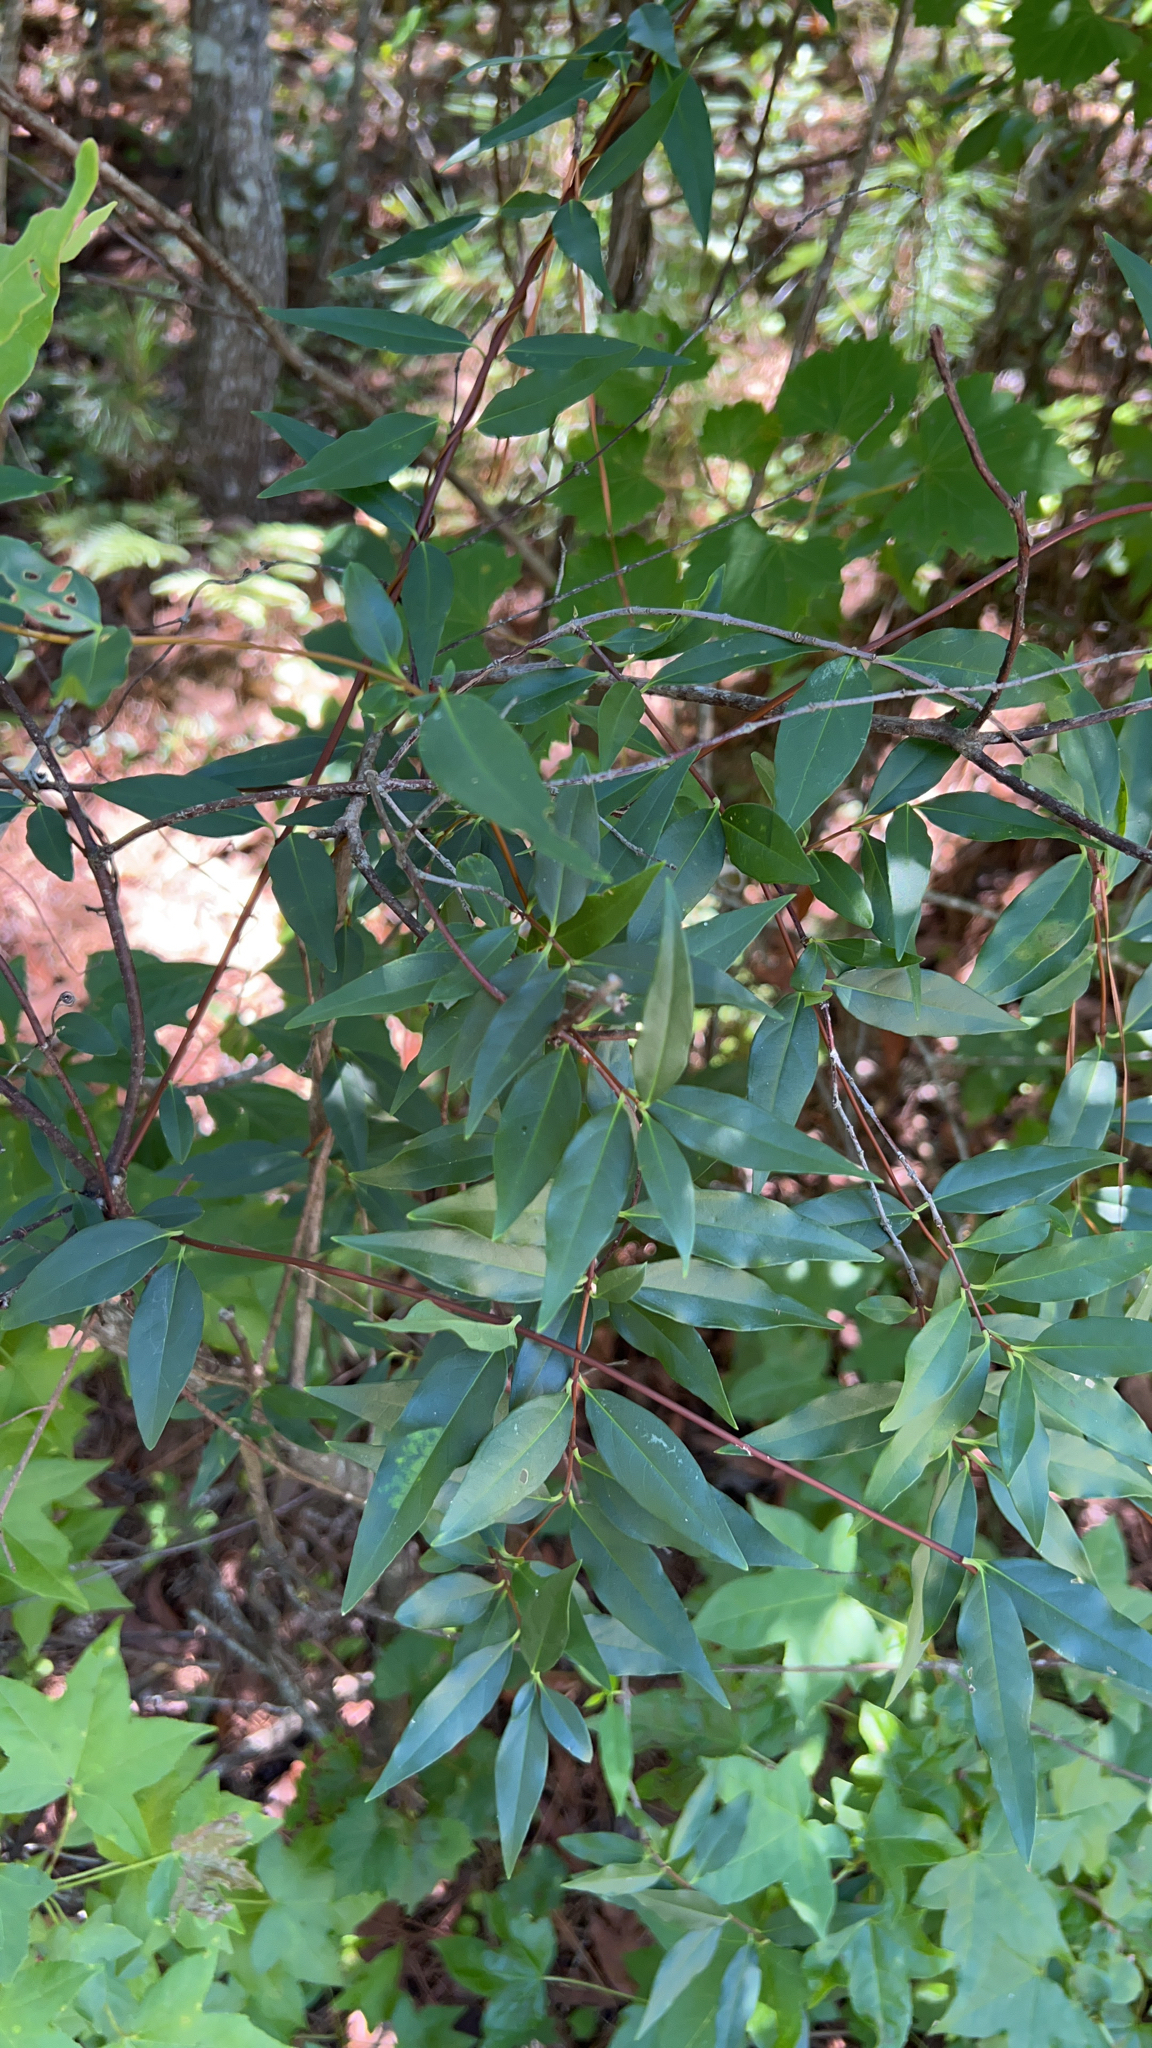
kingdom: Plantae
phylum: Tracheophyta
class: Magnoliopsida
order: Gentianales
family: Gelsemiaceae
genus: Gelsemium
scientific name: Gelsemium sempervirens
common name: Carolina-jasmine
